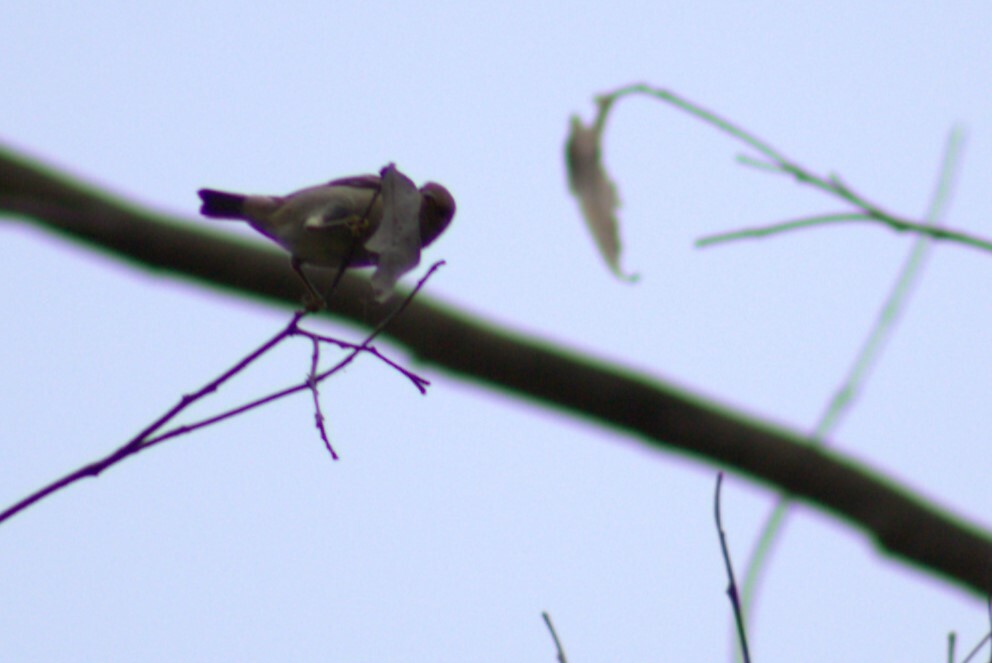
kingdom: Animalia
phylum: Chordata
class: Aves
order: Passeriformes
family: Meliphagidae
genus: Myzomela
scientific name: Myzomela sanguinolenta
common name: Scarlet myzomela
